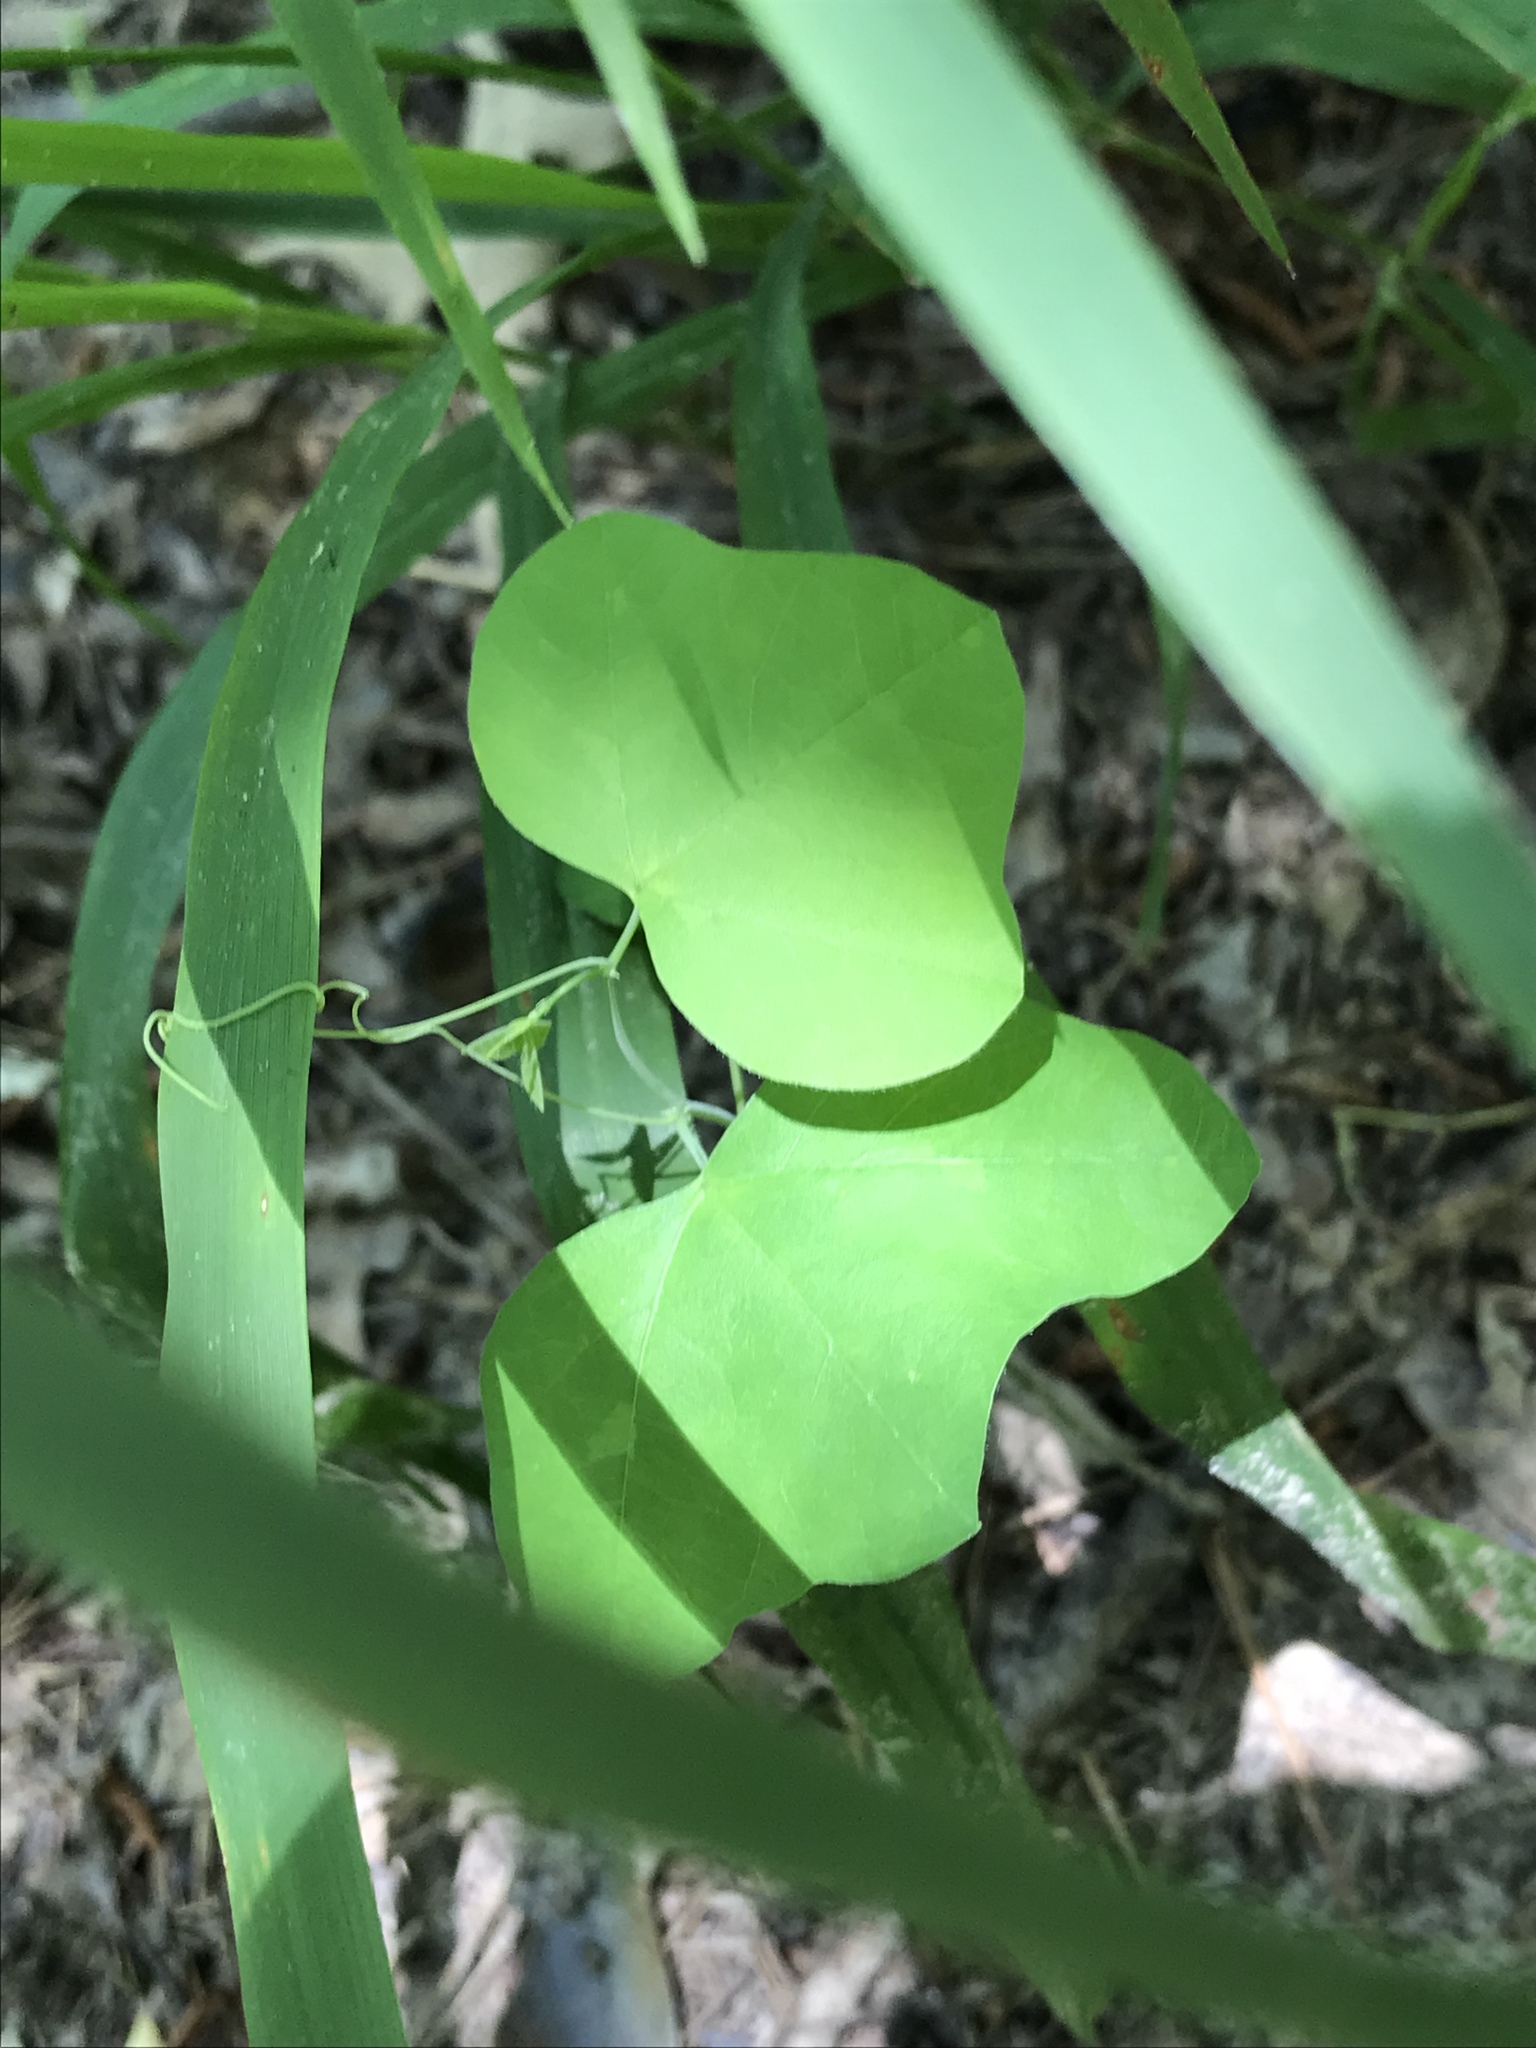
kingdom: Plantae
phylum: Tracheophyta
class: Magnoliopsida
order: Malpighiales
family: Passifloraceae
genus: Passiflora
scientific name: Passiflora lutea
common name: Yellow passionflower
